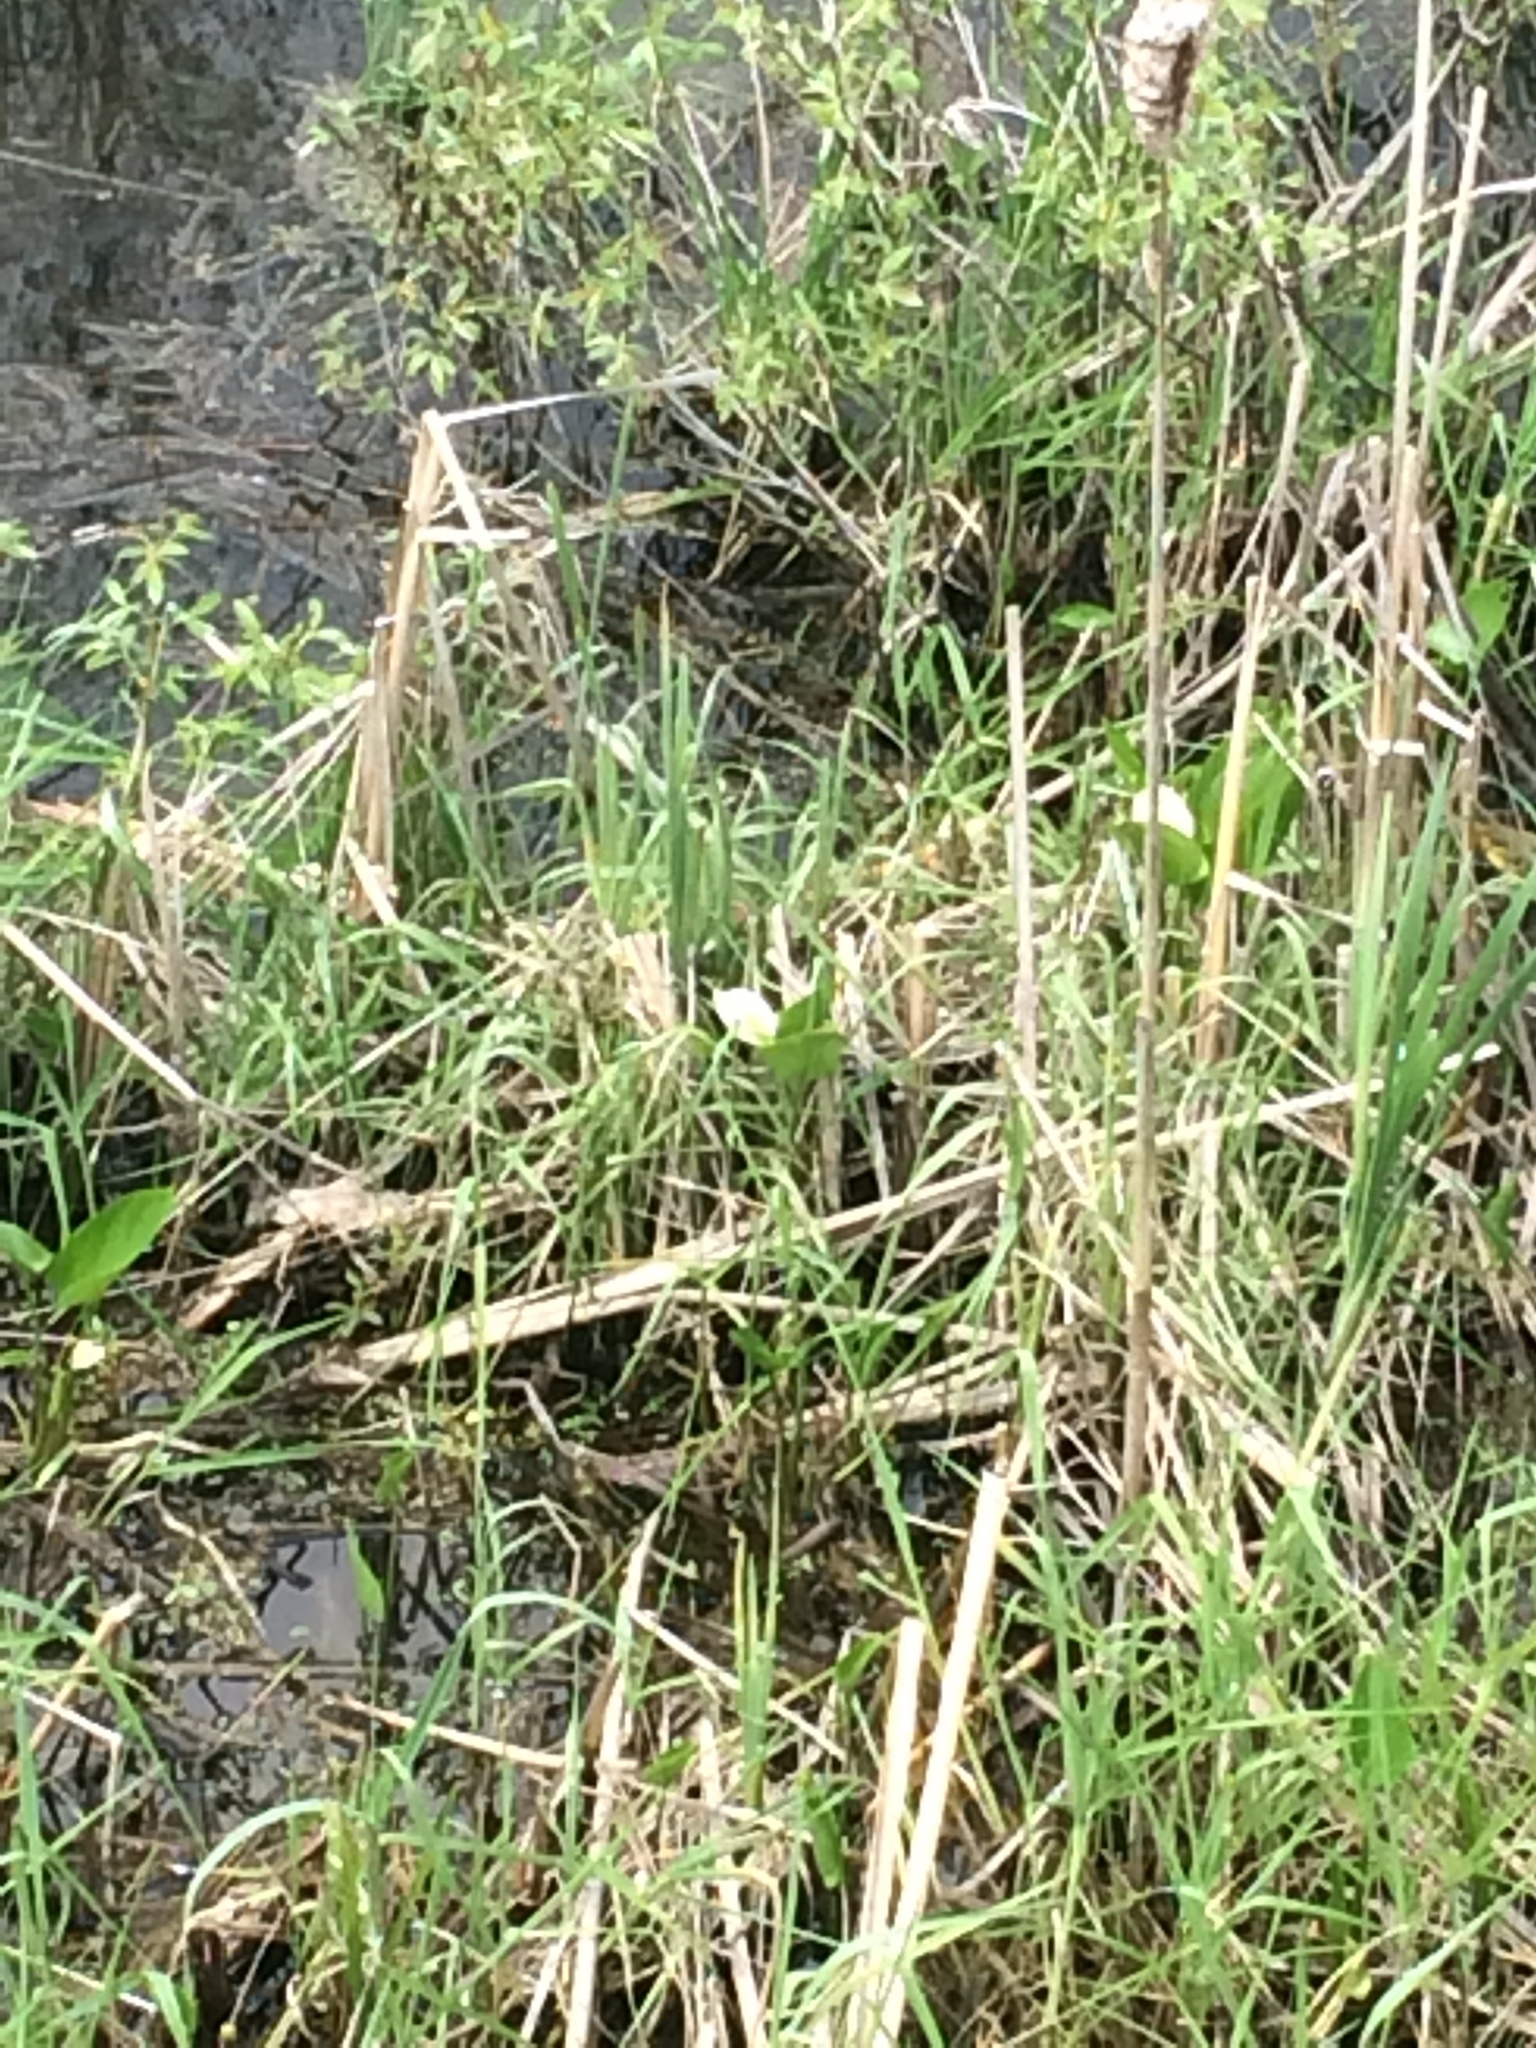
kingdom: Plantae
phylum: Tracheophyta
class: Liliopsida
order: Alismatales
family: Araceae
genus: Calla
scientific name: Calla palustris
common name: Bog arum
